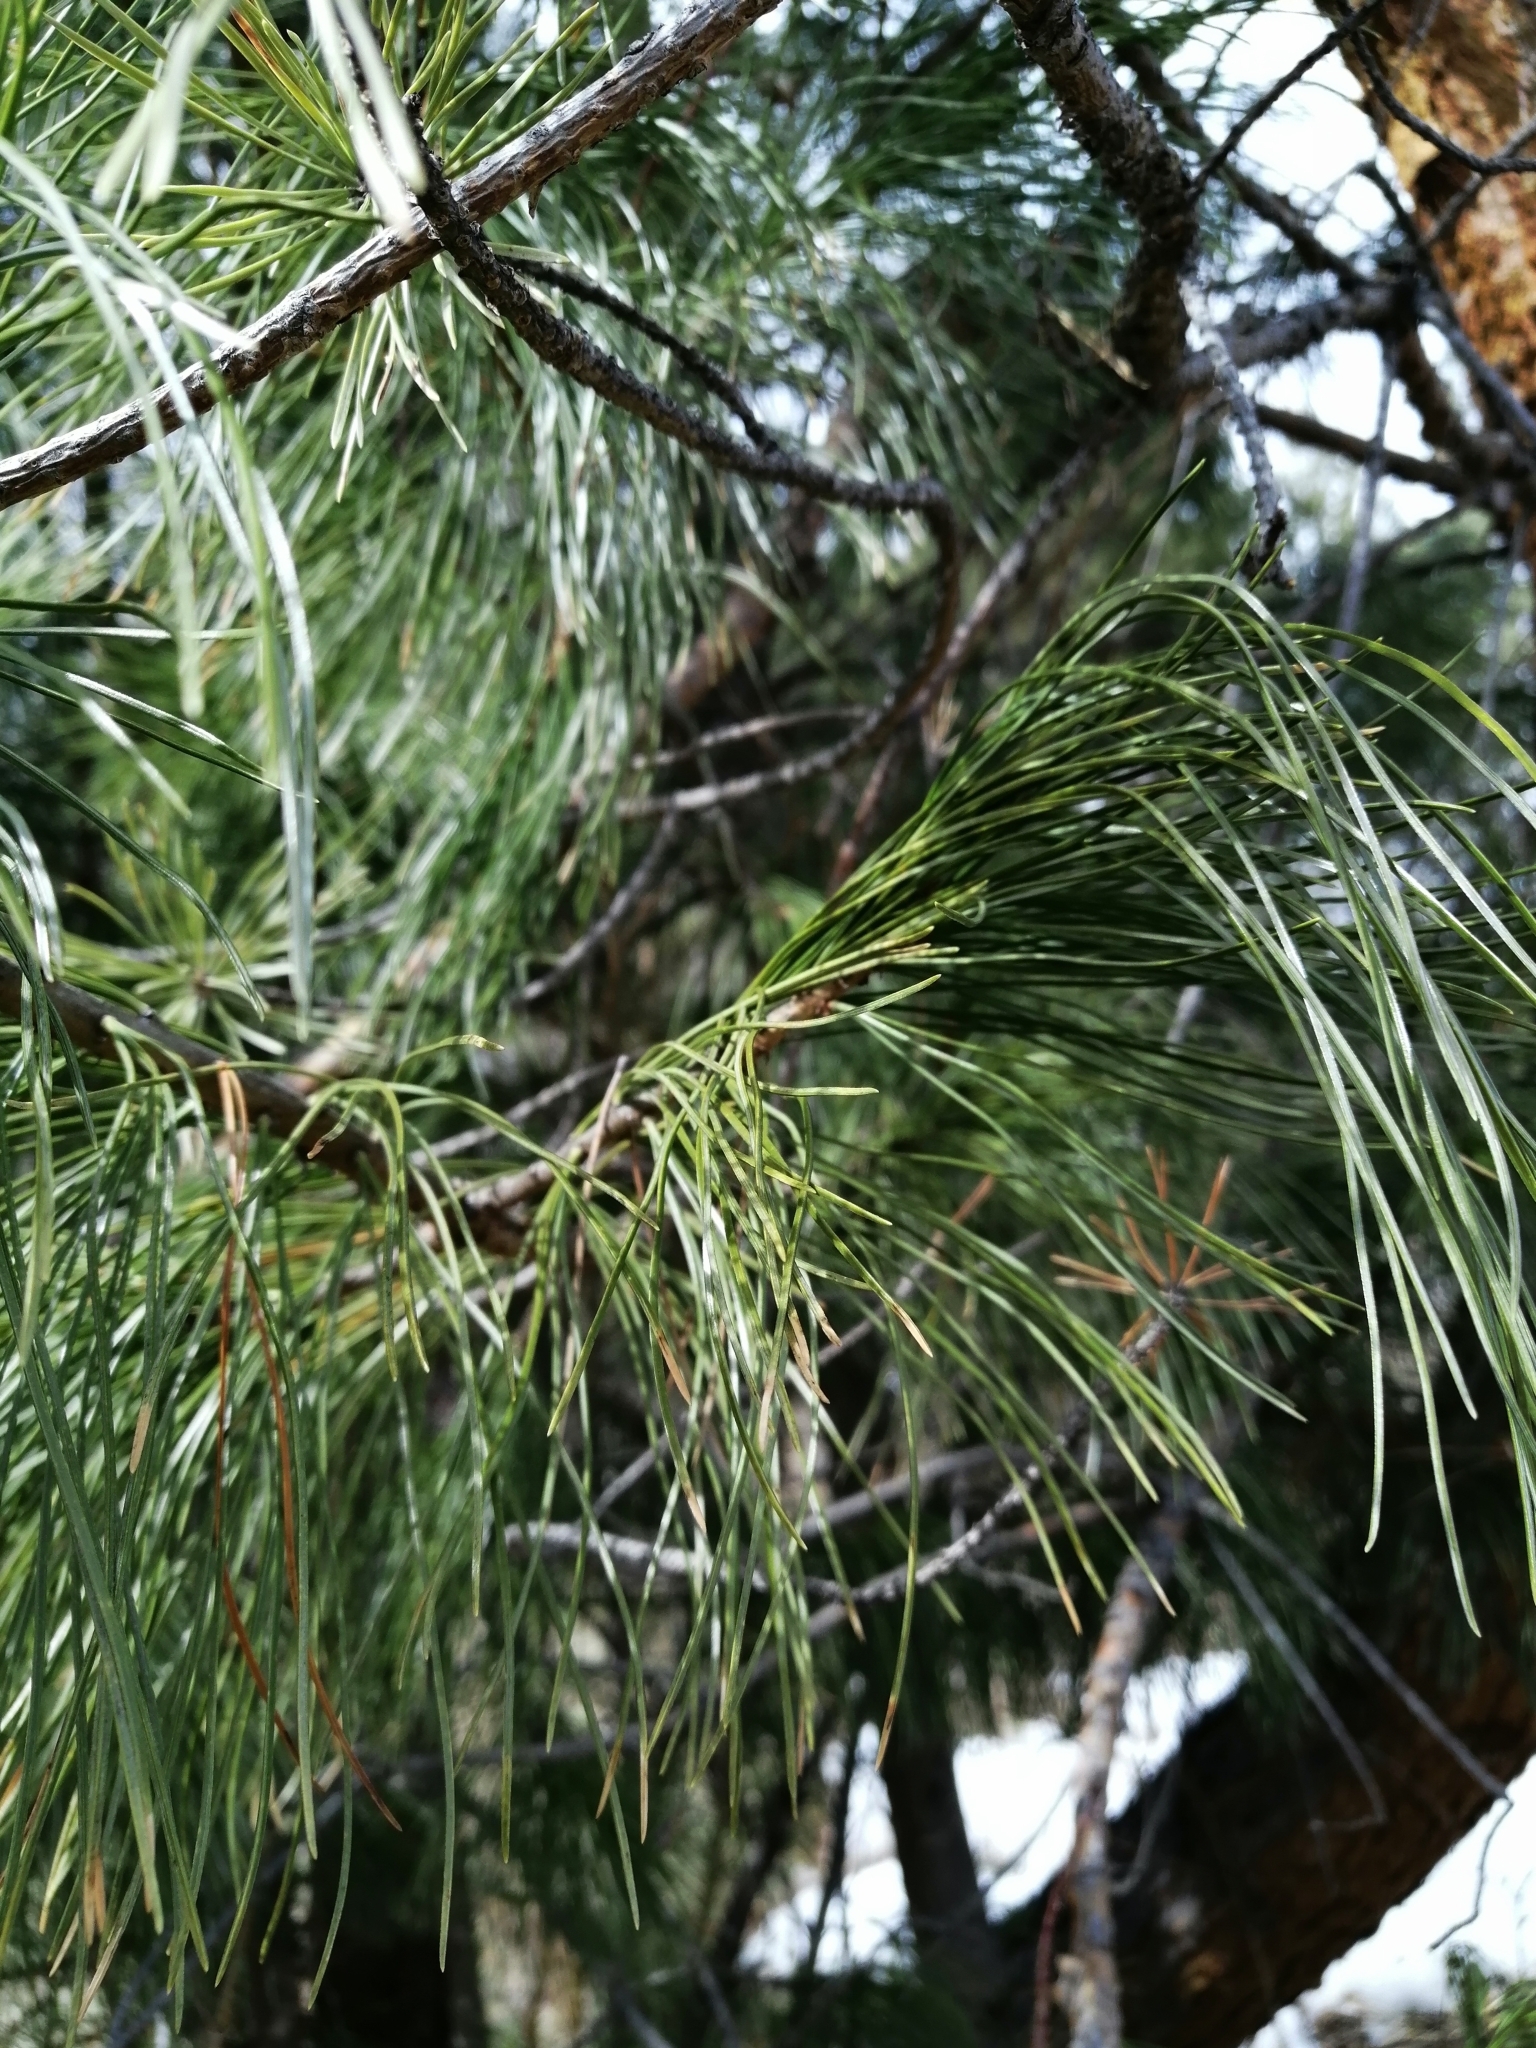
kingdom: Plantae
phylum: Tracheophyta
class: Pinopsida
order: Pinales
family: Pinaceae
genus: Pinus
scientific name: Pinus sibirica
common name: Siberian pine
